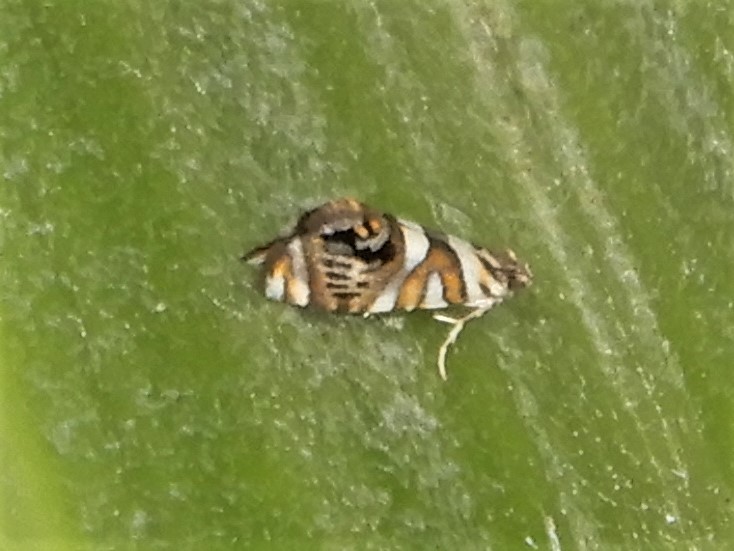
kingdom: Animalia
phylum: Arthropoda
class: Insecta
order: Lepidoptera
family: Plutellidae
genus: Protosynaema
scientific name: Protosynaema hymenopis
